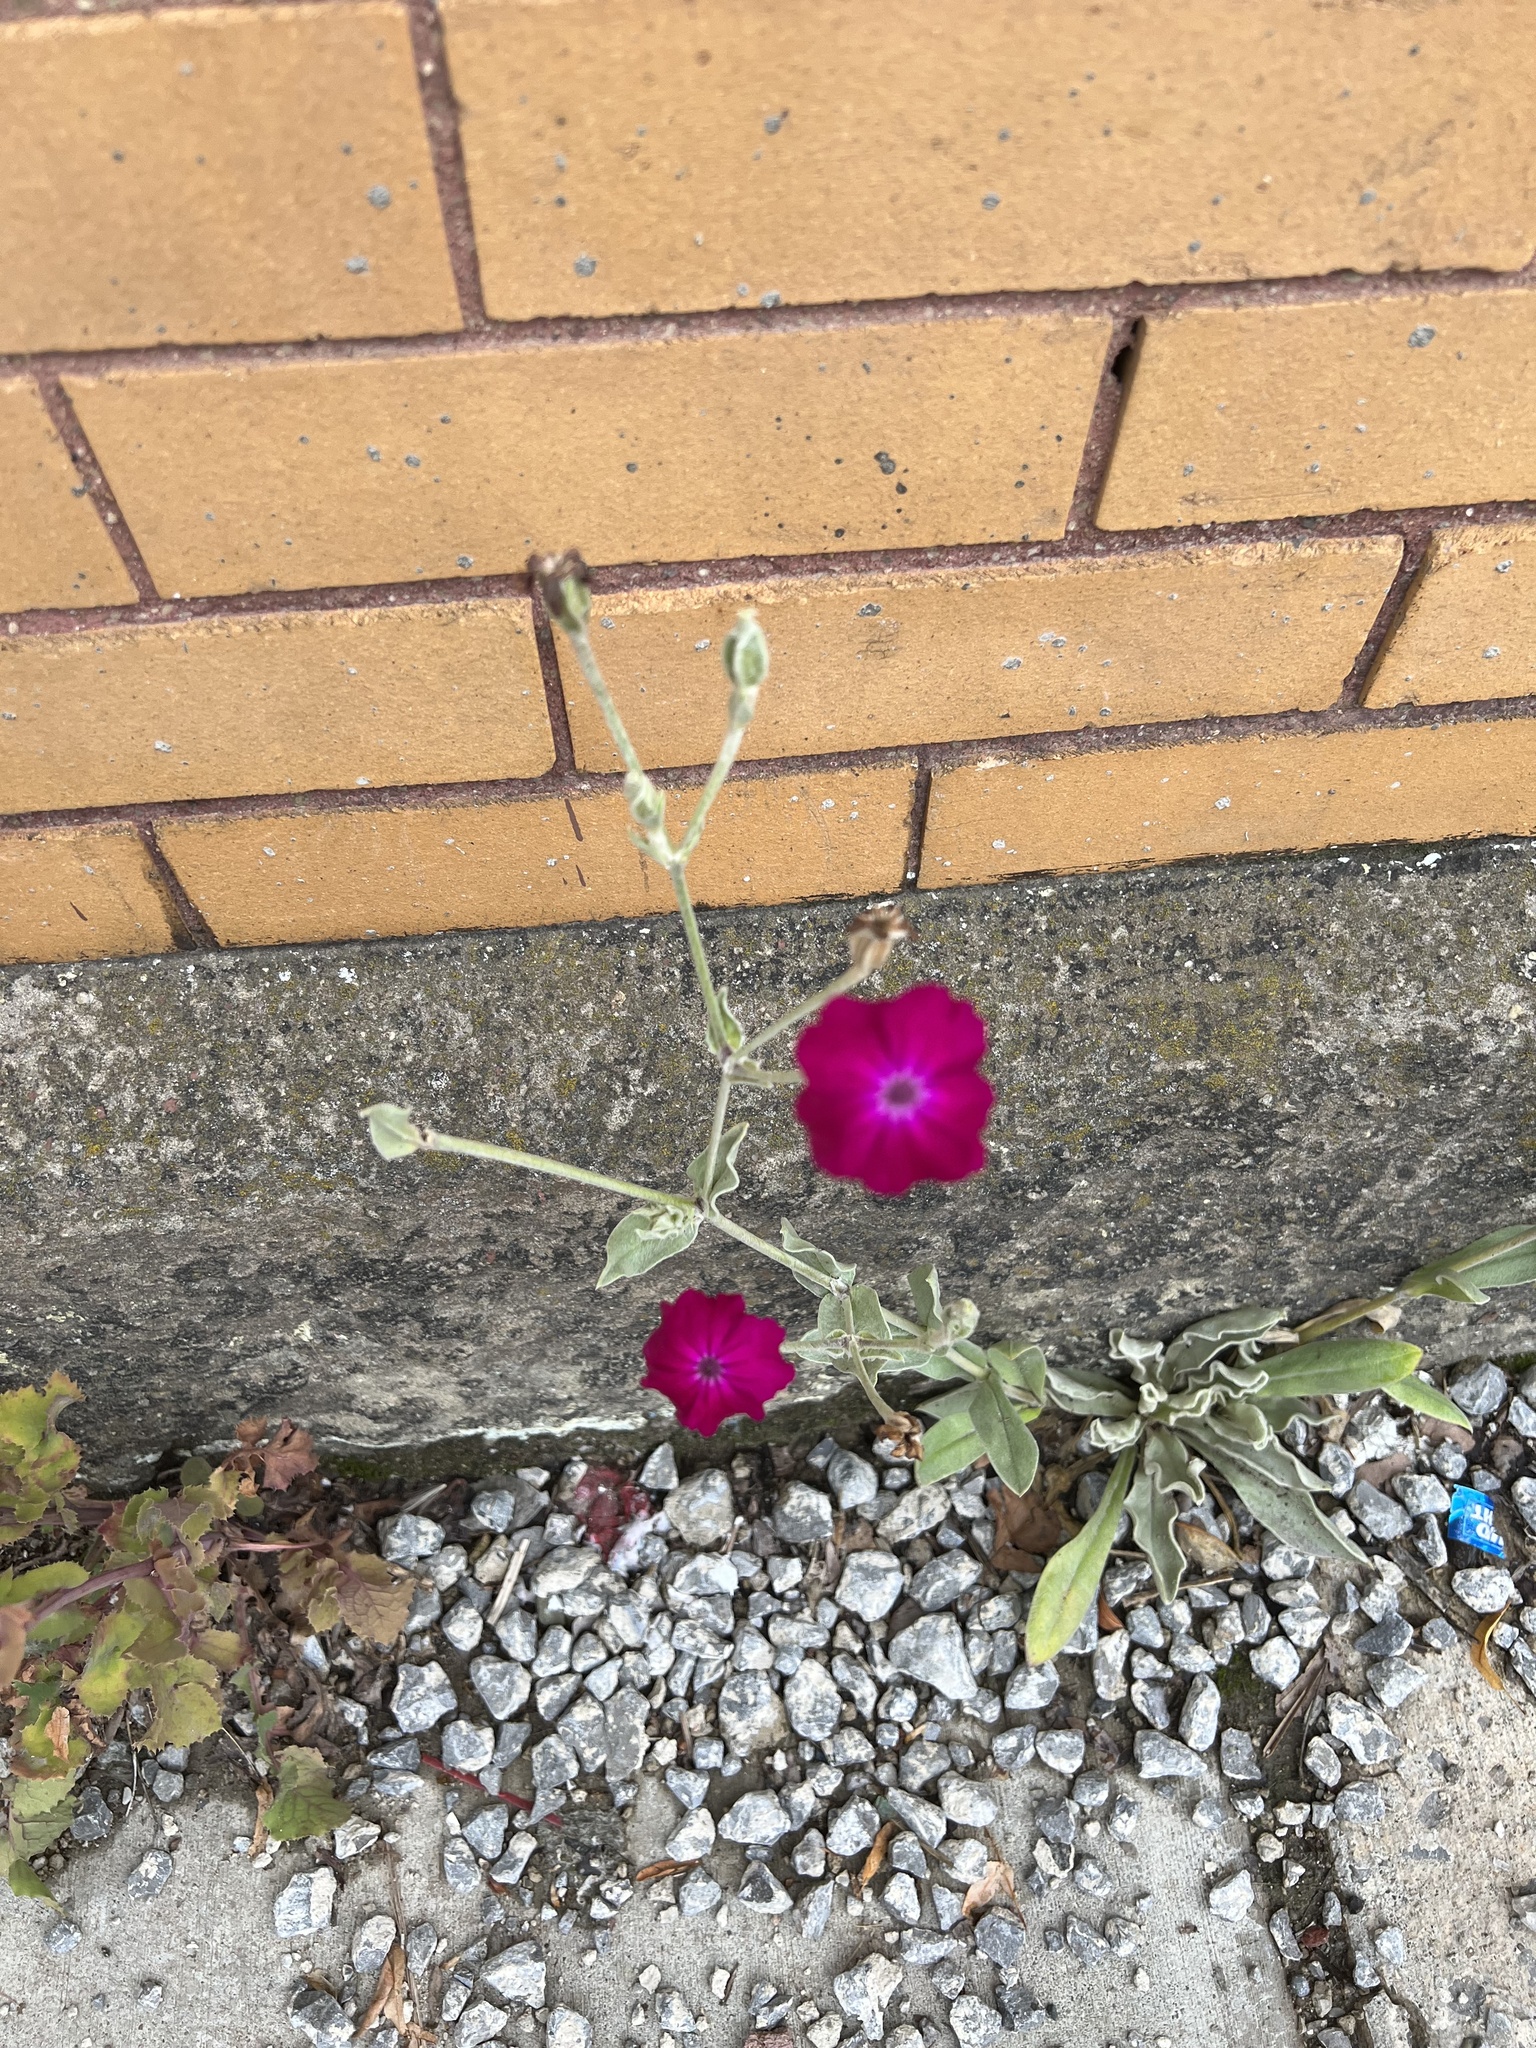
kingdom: Plantae
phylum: Tracheophyta
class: Magnoliopsida
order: Caryophyllales
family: Caryophyllaceae
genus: Silene
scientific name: Silene coronaria
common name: Rose campion
